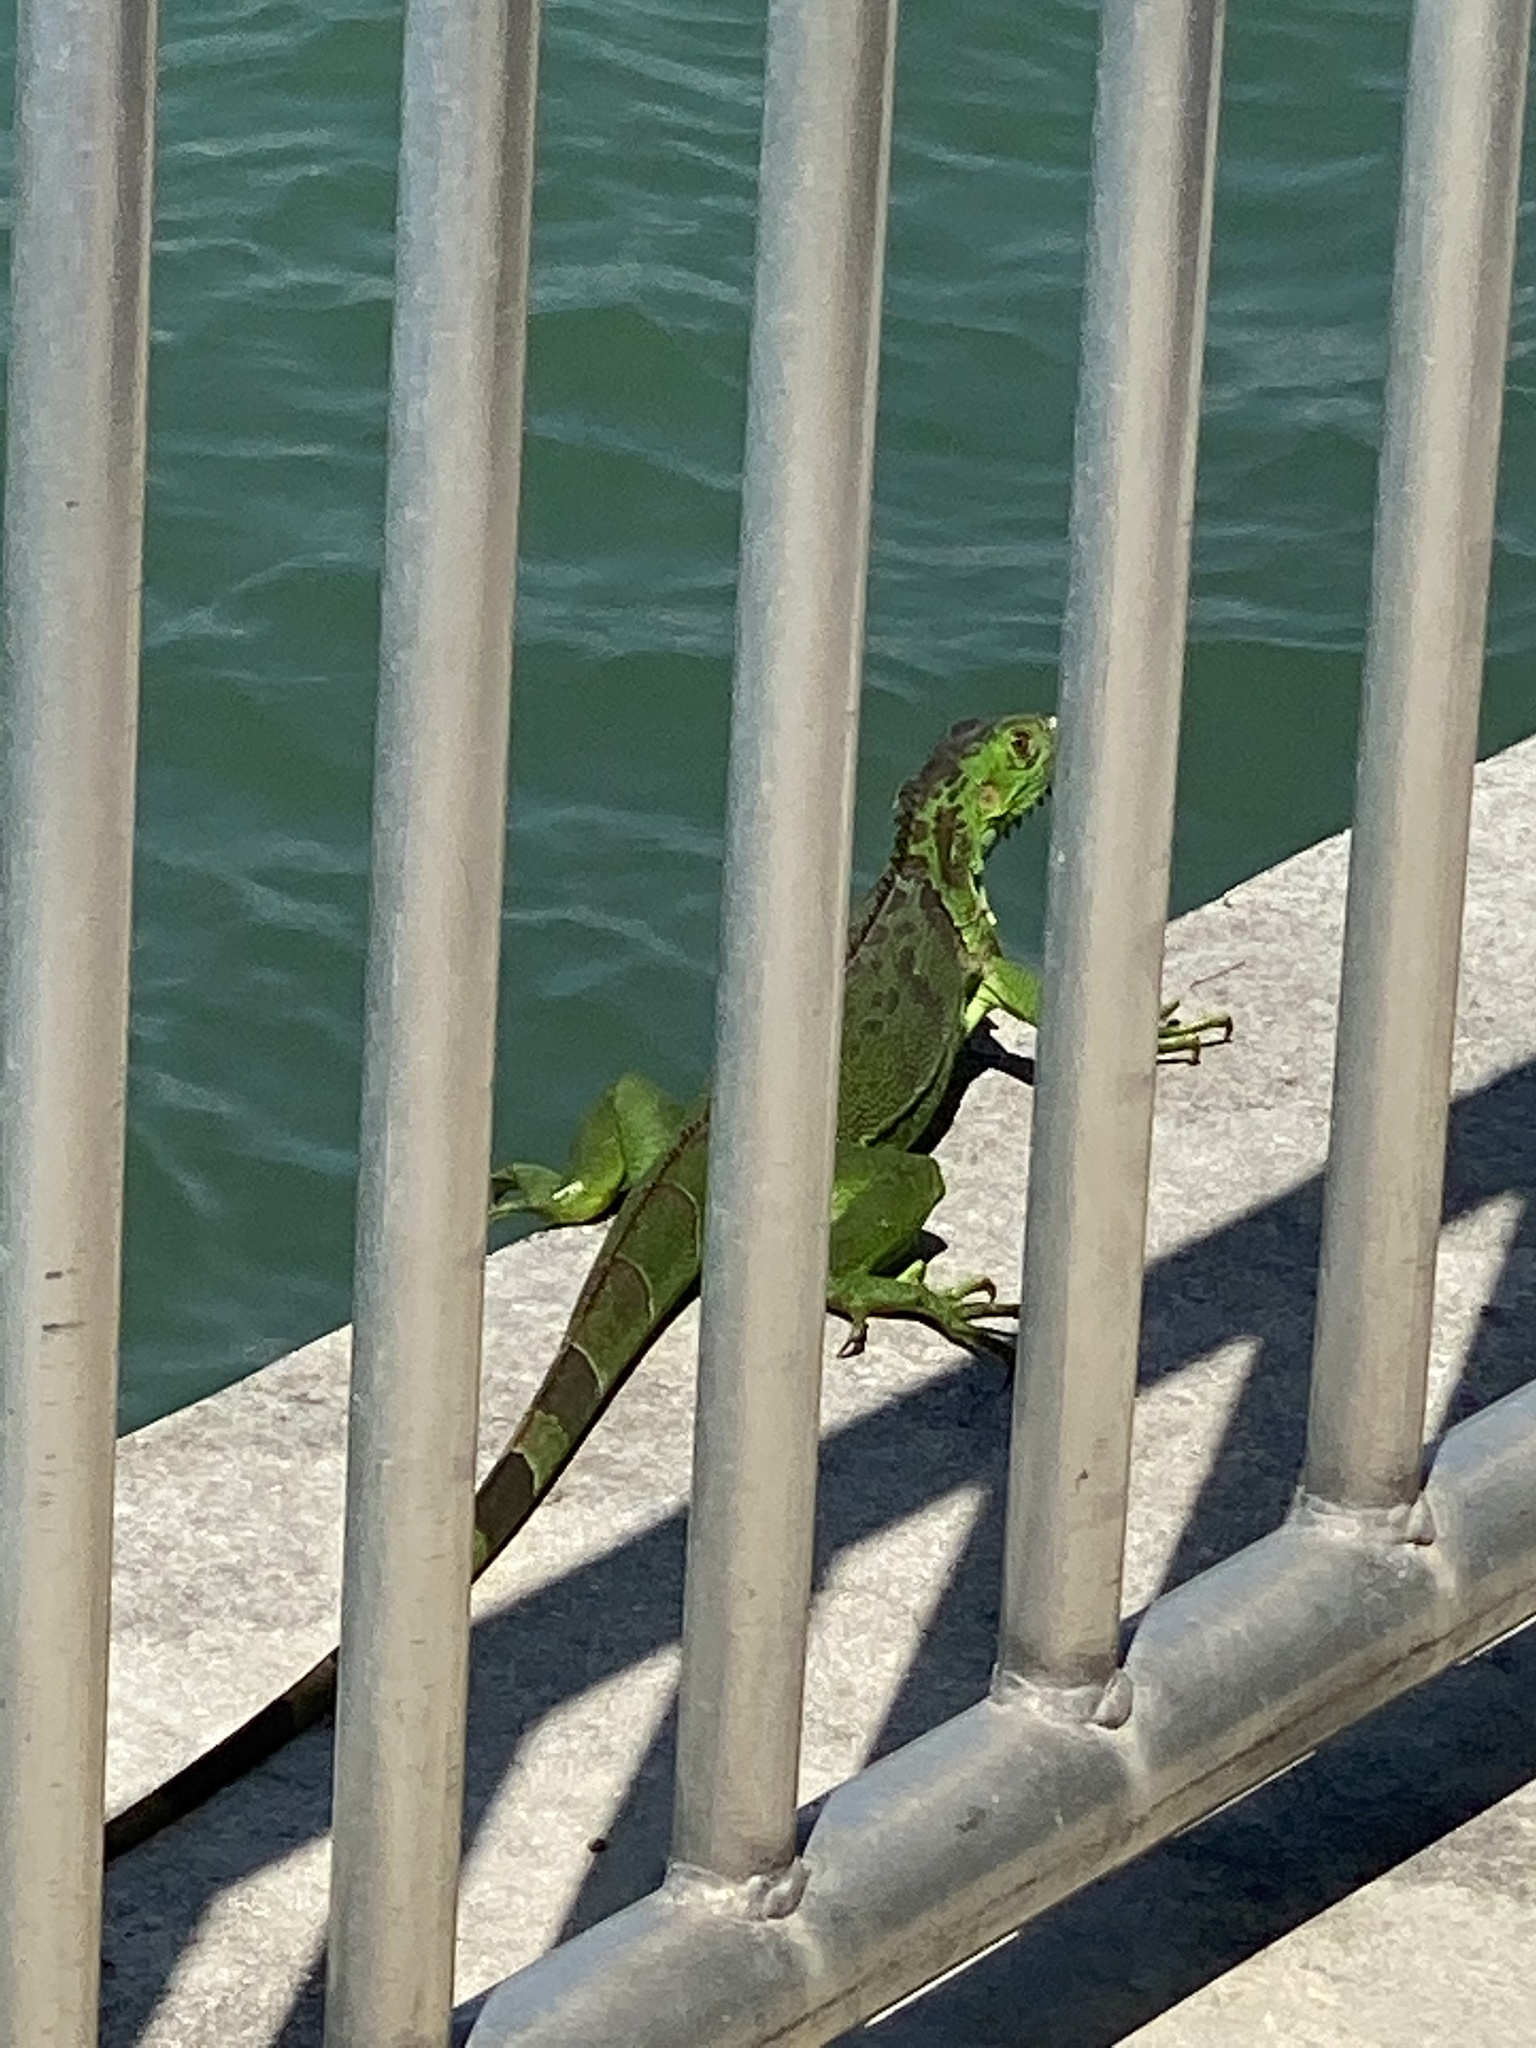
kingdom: Animalia
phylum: Chordata
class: Squamata
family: Iguanidae
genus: Iguana
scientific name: Iguana iguana
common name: Green iguana
